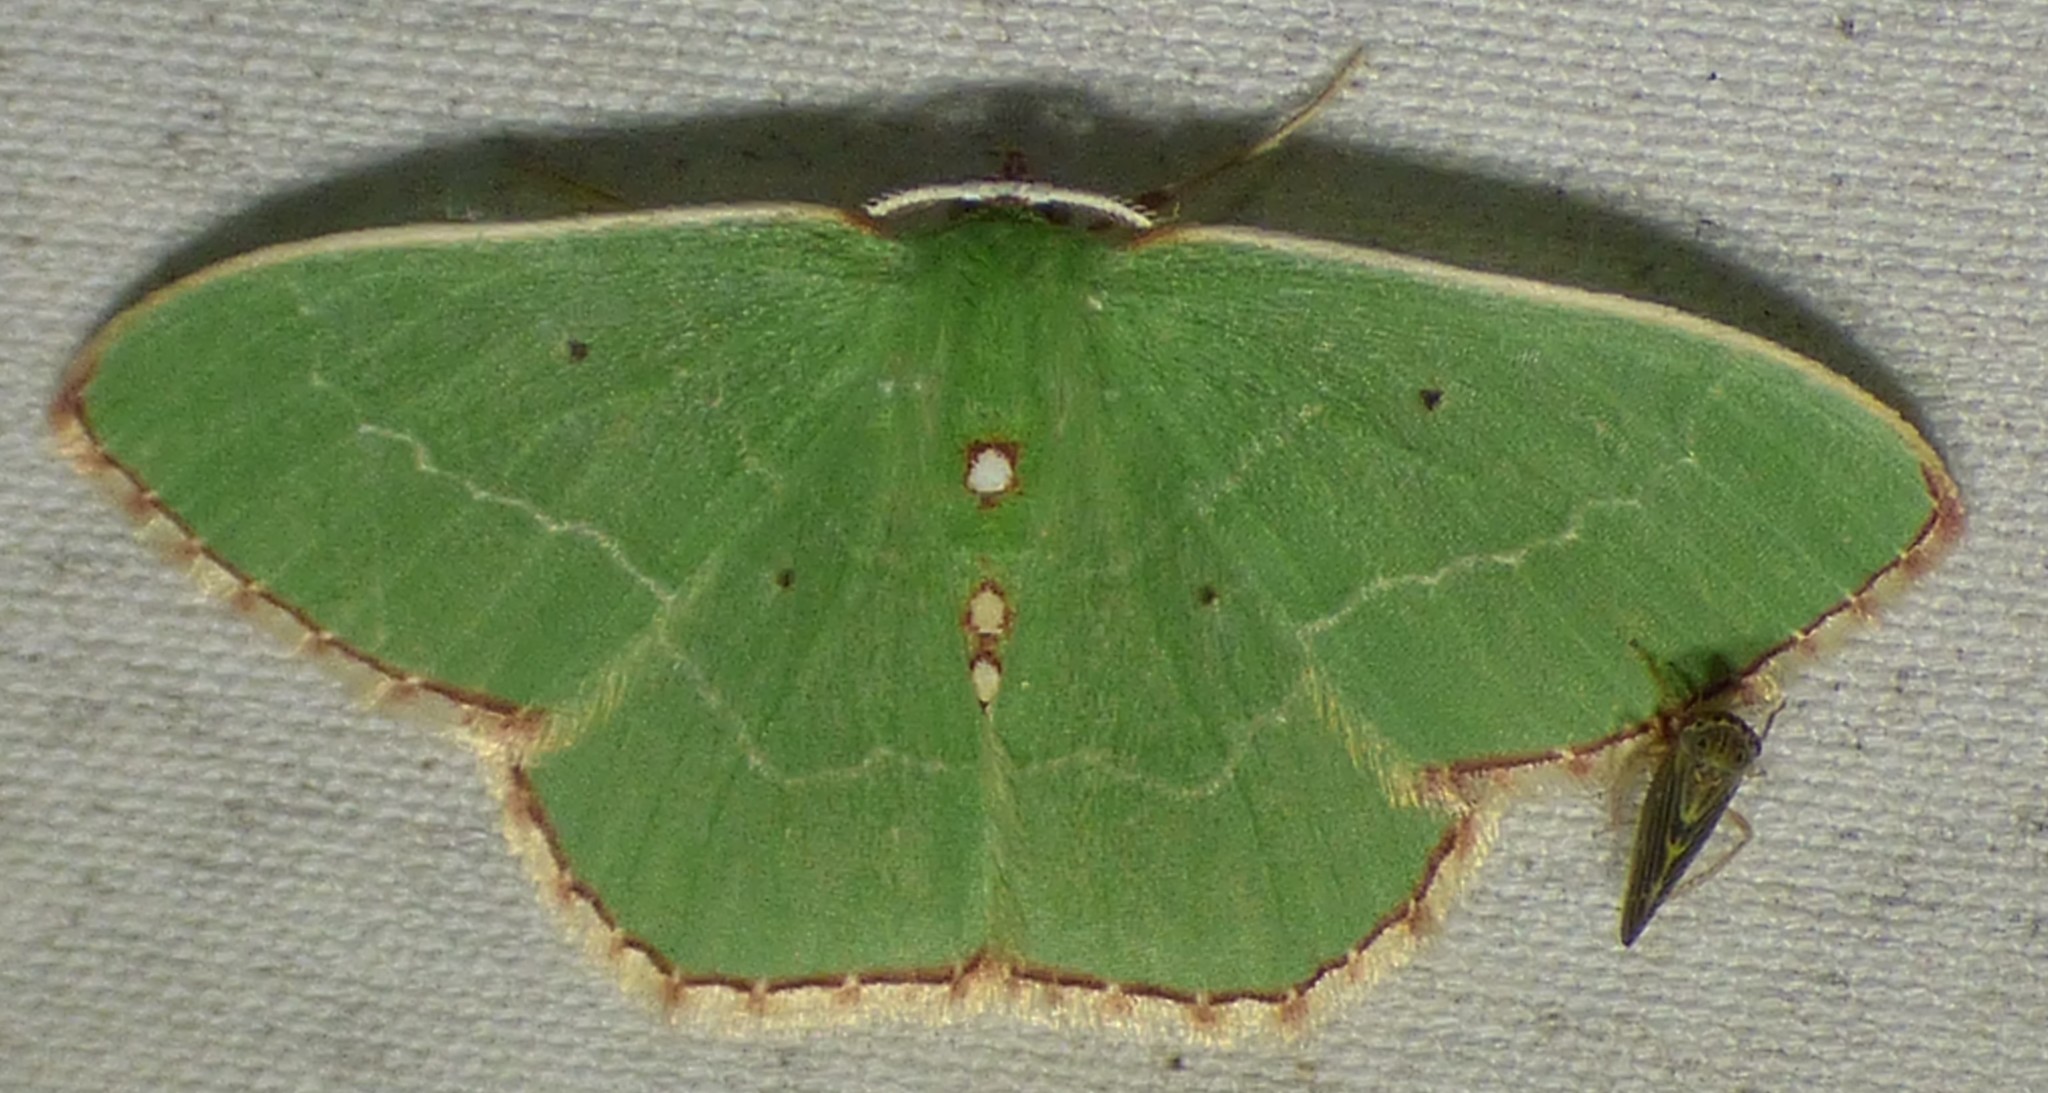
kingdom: Animalia
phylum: Arthropoda
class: Insecta
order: Lepidoptera
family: Geometridae
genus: Nemoria
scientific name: Nemoria lixaria
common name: Red-bordered emerald
